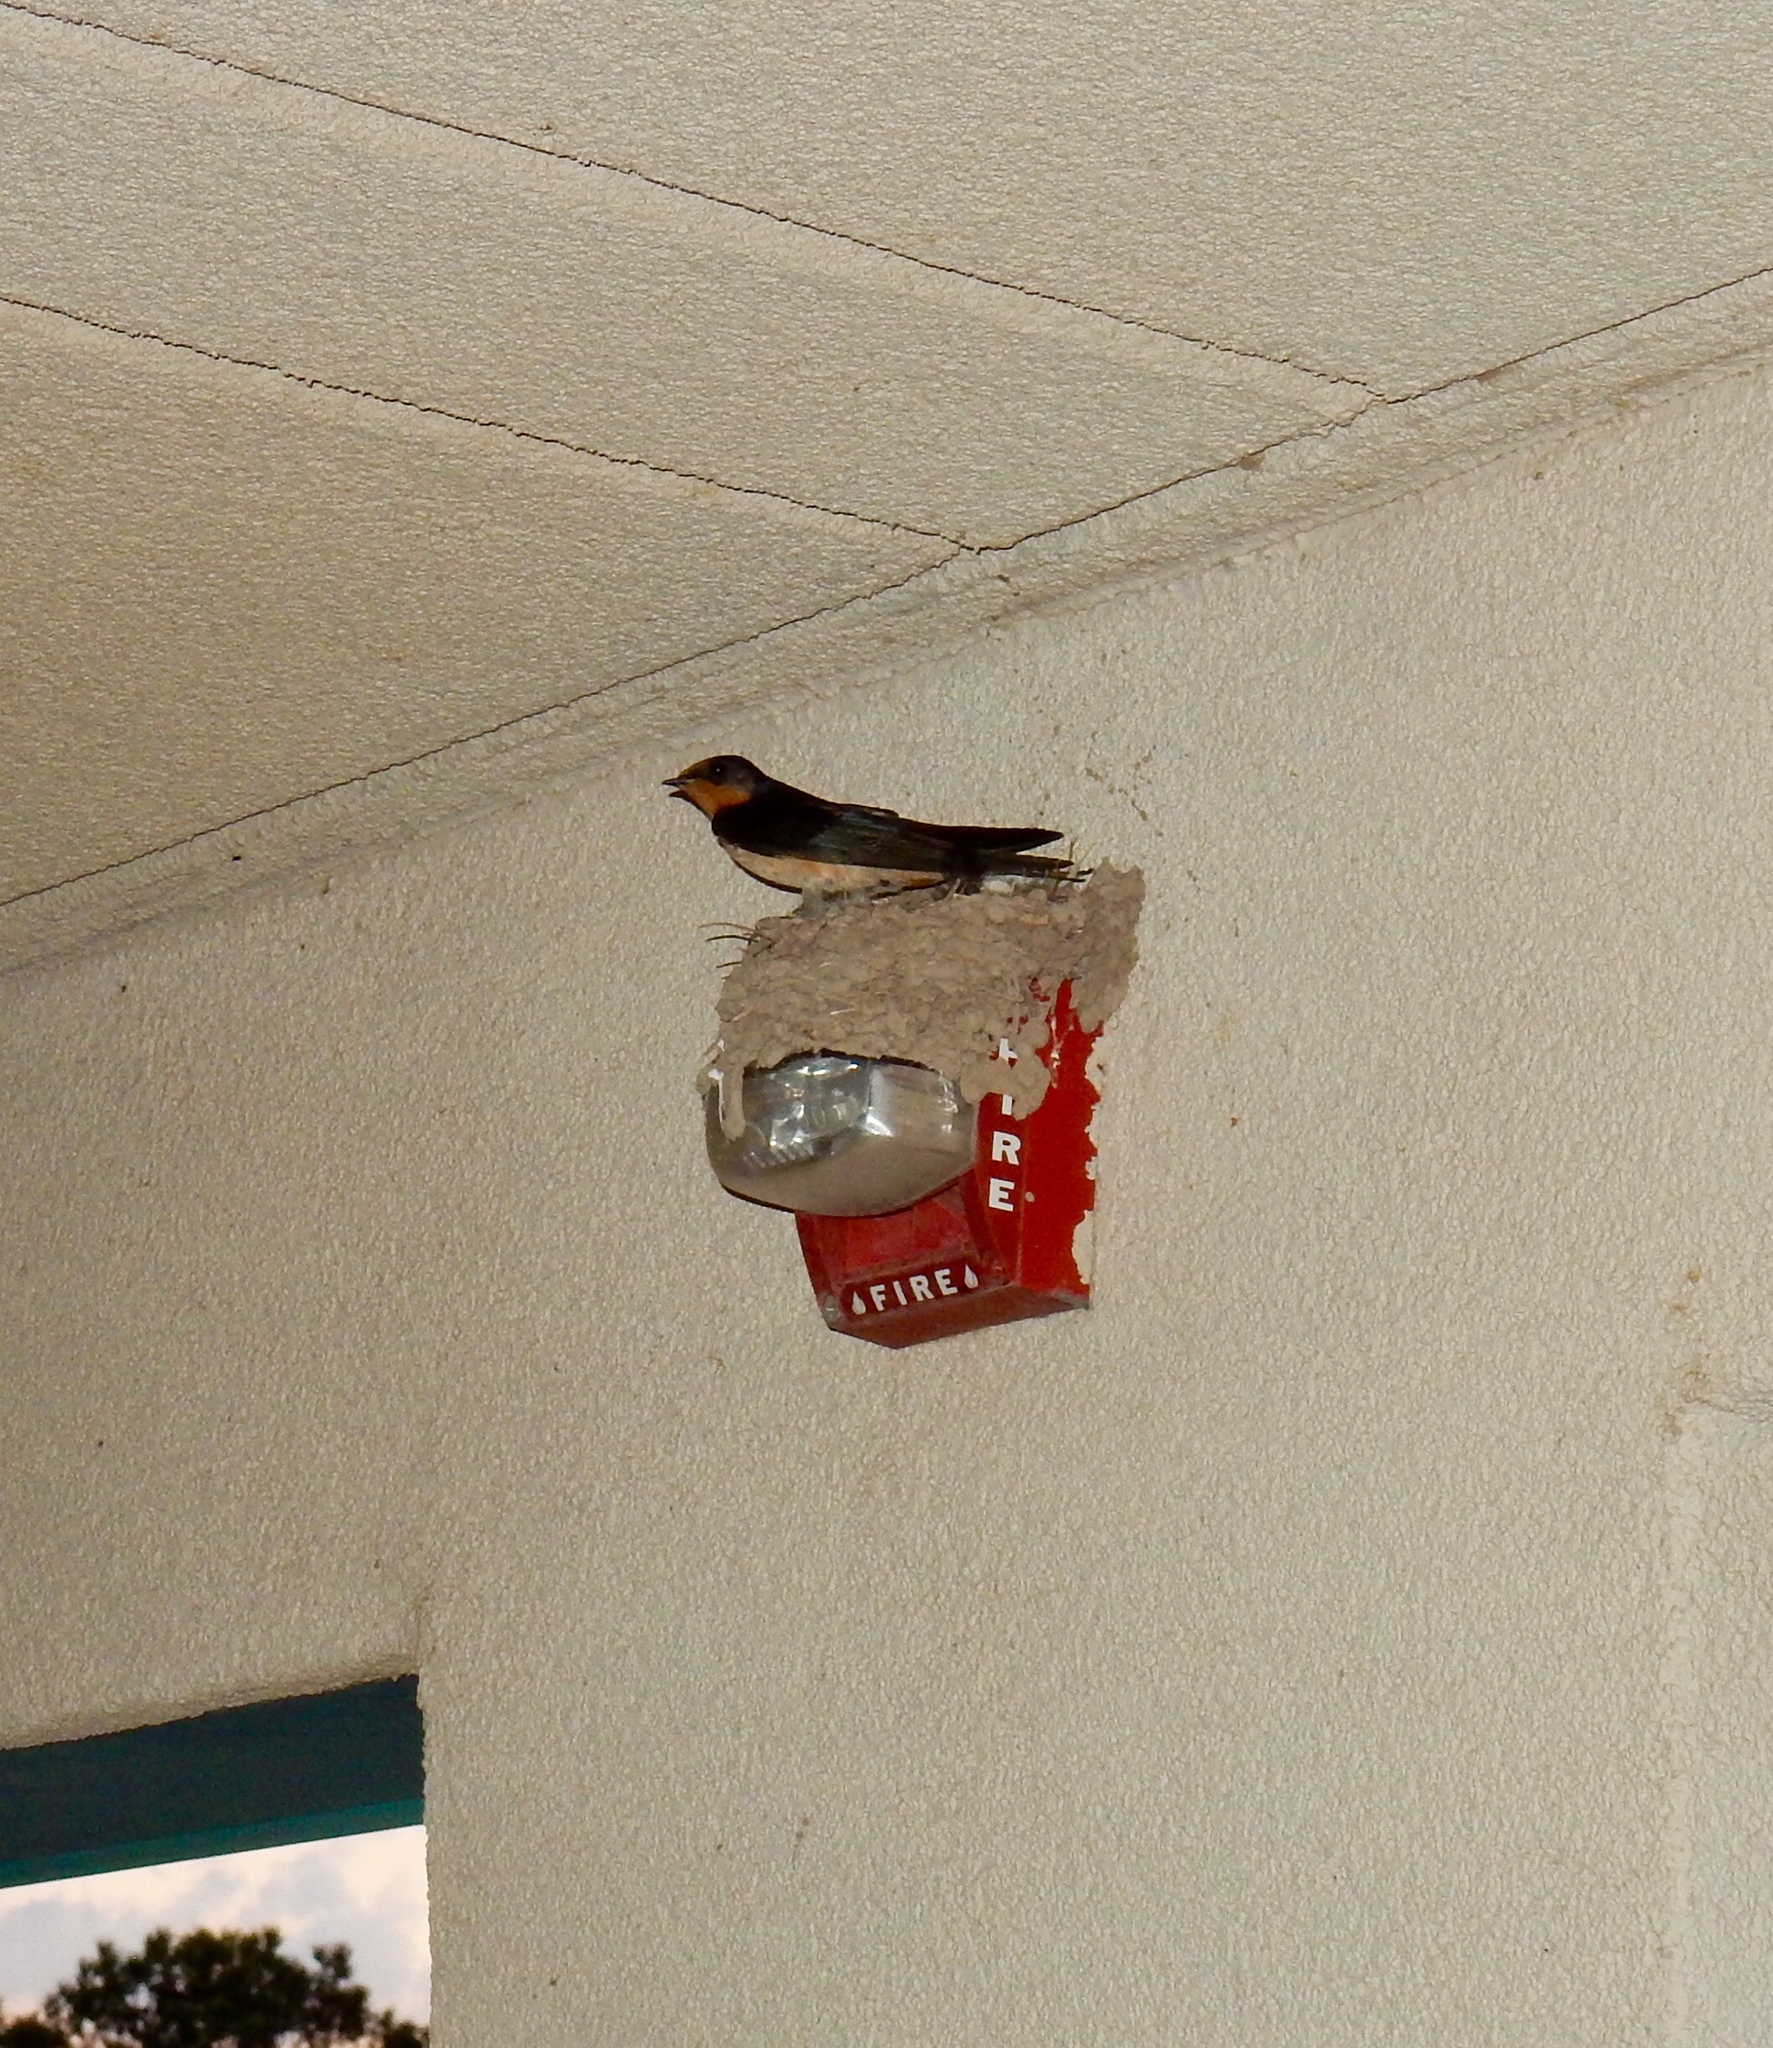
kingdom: Animalia
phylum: Chordata
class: Aves
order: Passeriformes
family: Hirundinidae
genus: Hirundo
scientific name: Hirundo rustica
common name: Barn swallow
